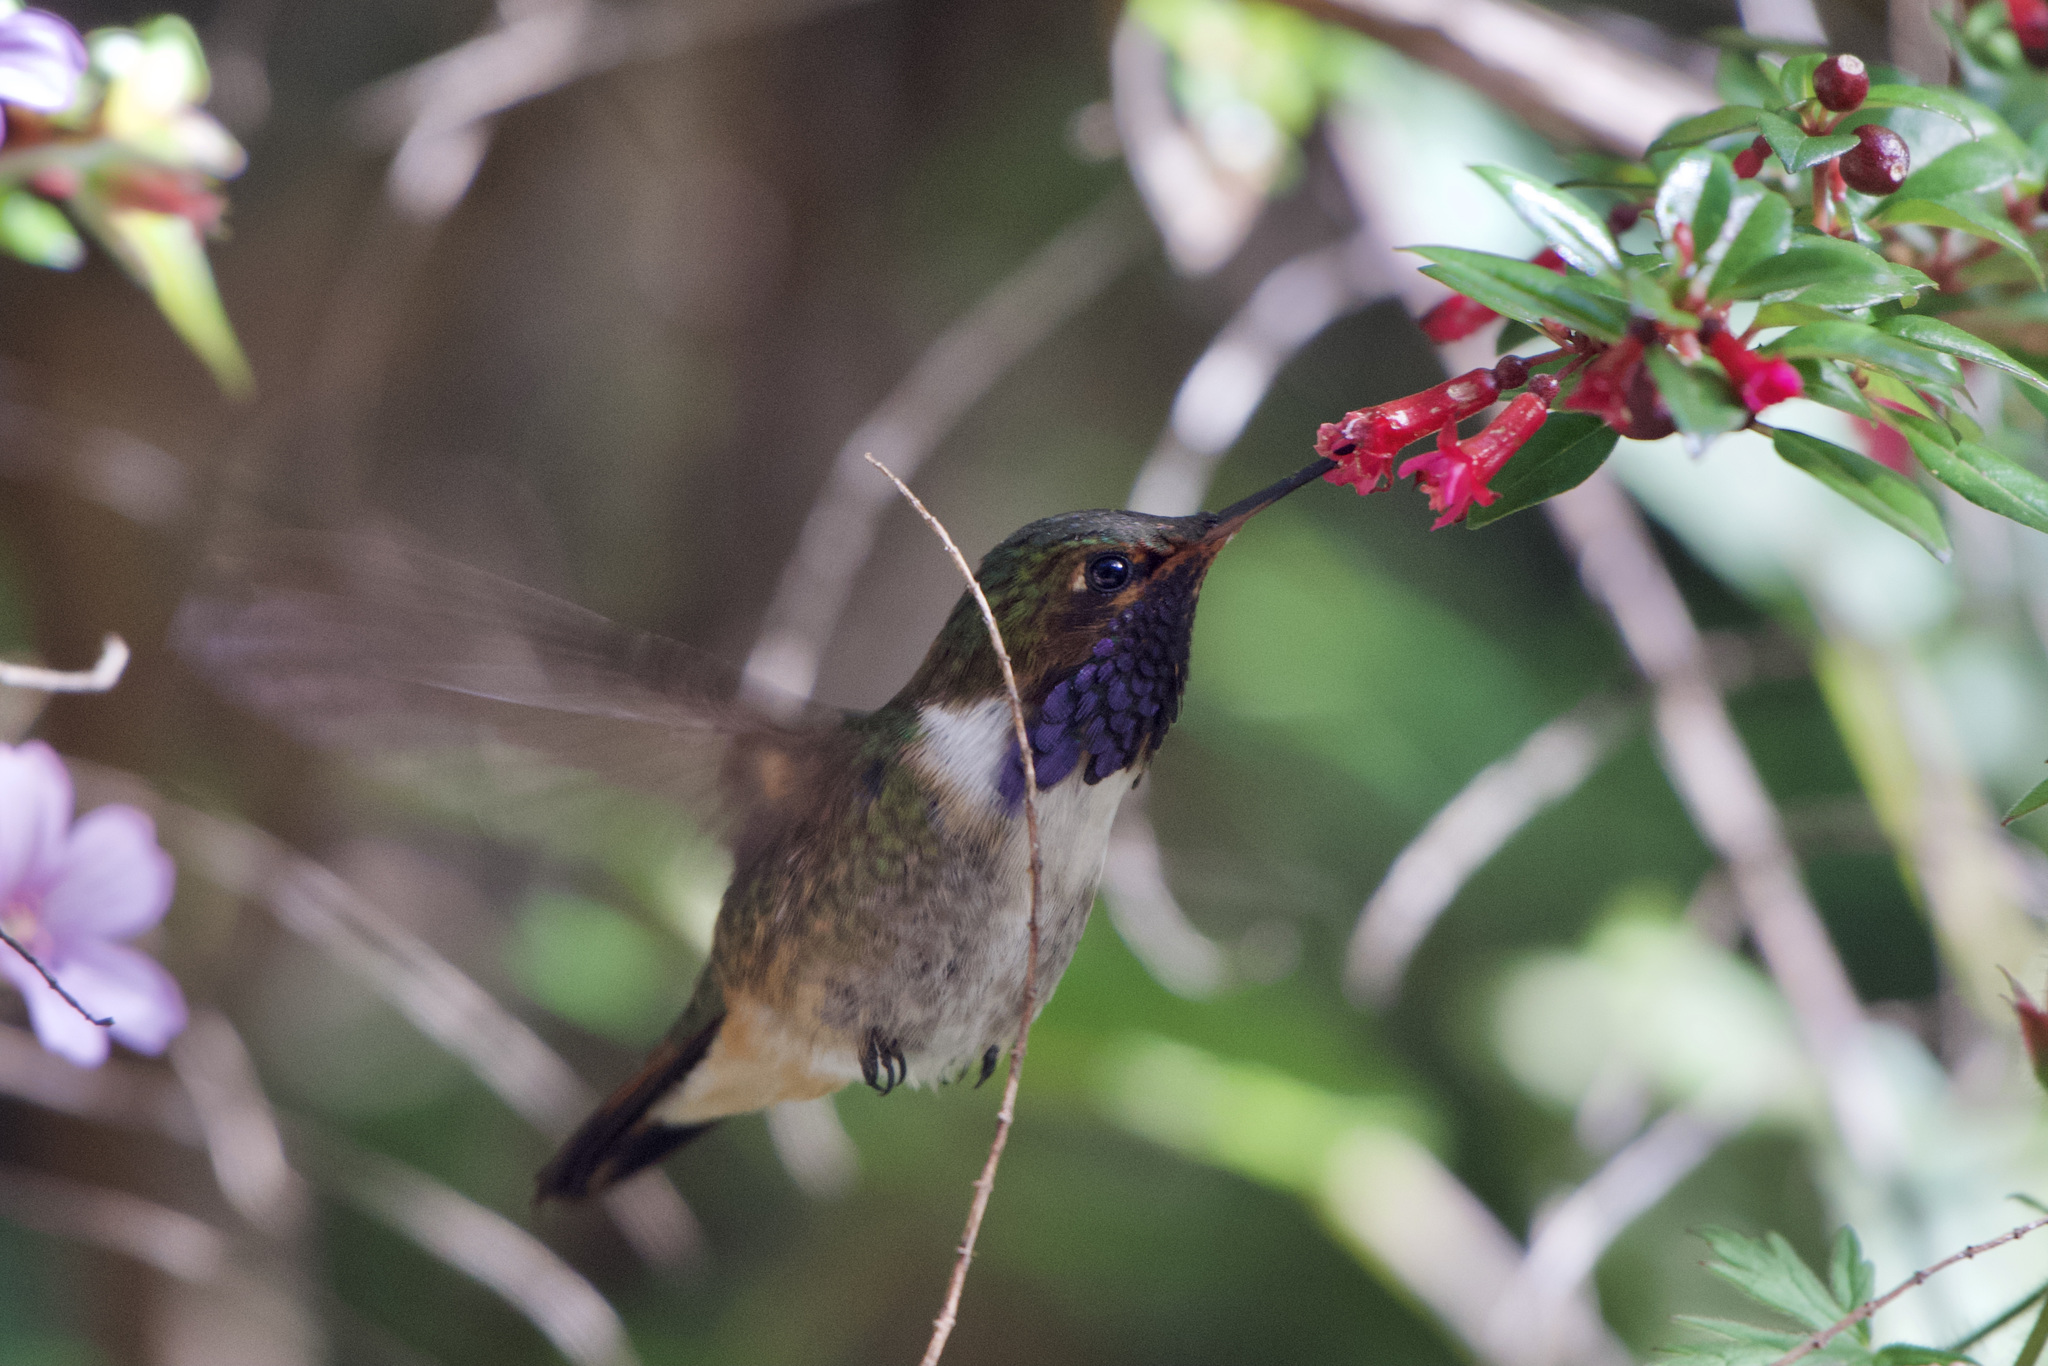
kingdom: Animalia
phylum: Chordata
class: Aves
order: Apodiformes
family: Trochilidae
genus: Selasphorus
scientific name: Selasphorus flammula
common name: Volcano hummingbird
